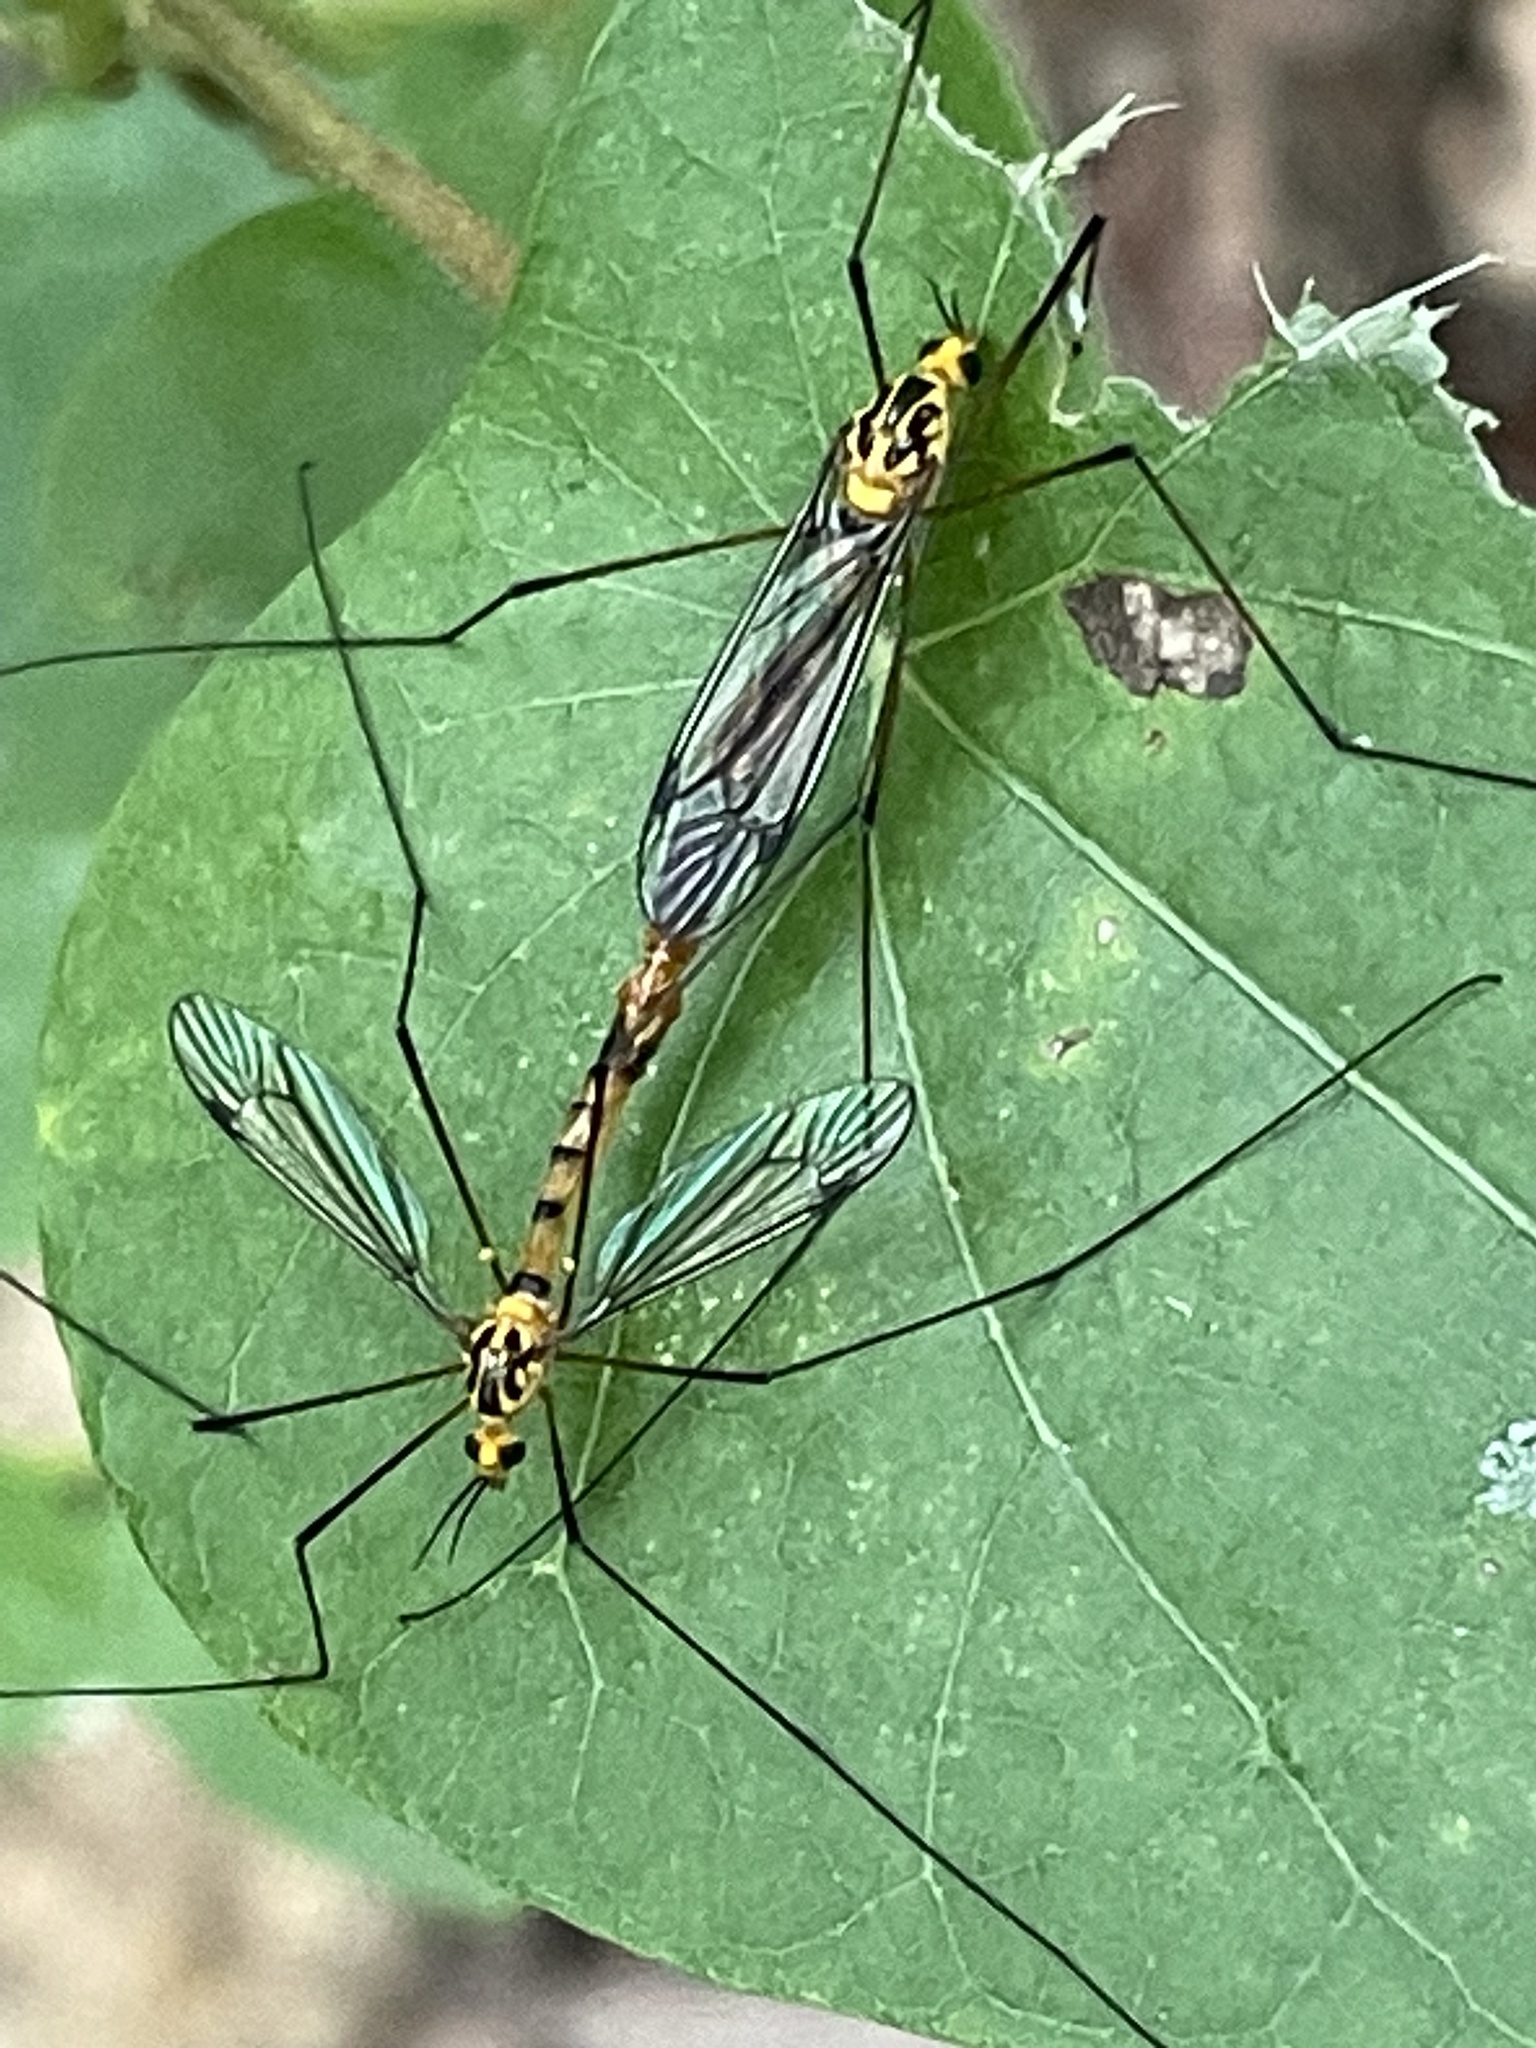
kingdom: Animalia
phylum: Arthropoda
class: Insecta
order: Diptera
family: Tipulidae
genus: Nephrotoma
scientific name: Nephrotoma australasiae
